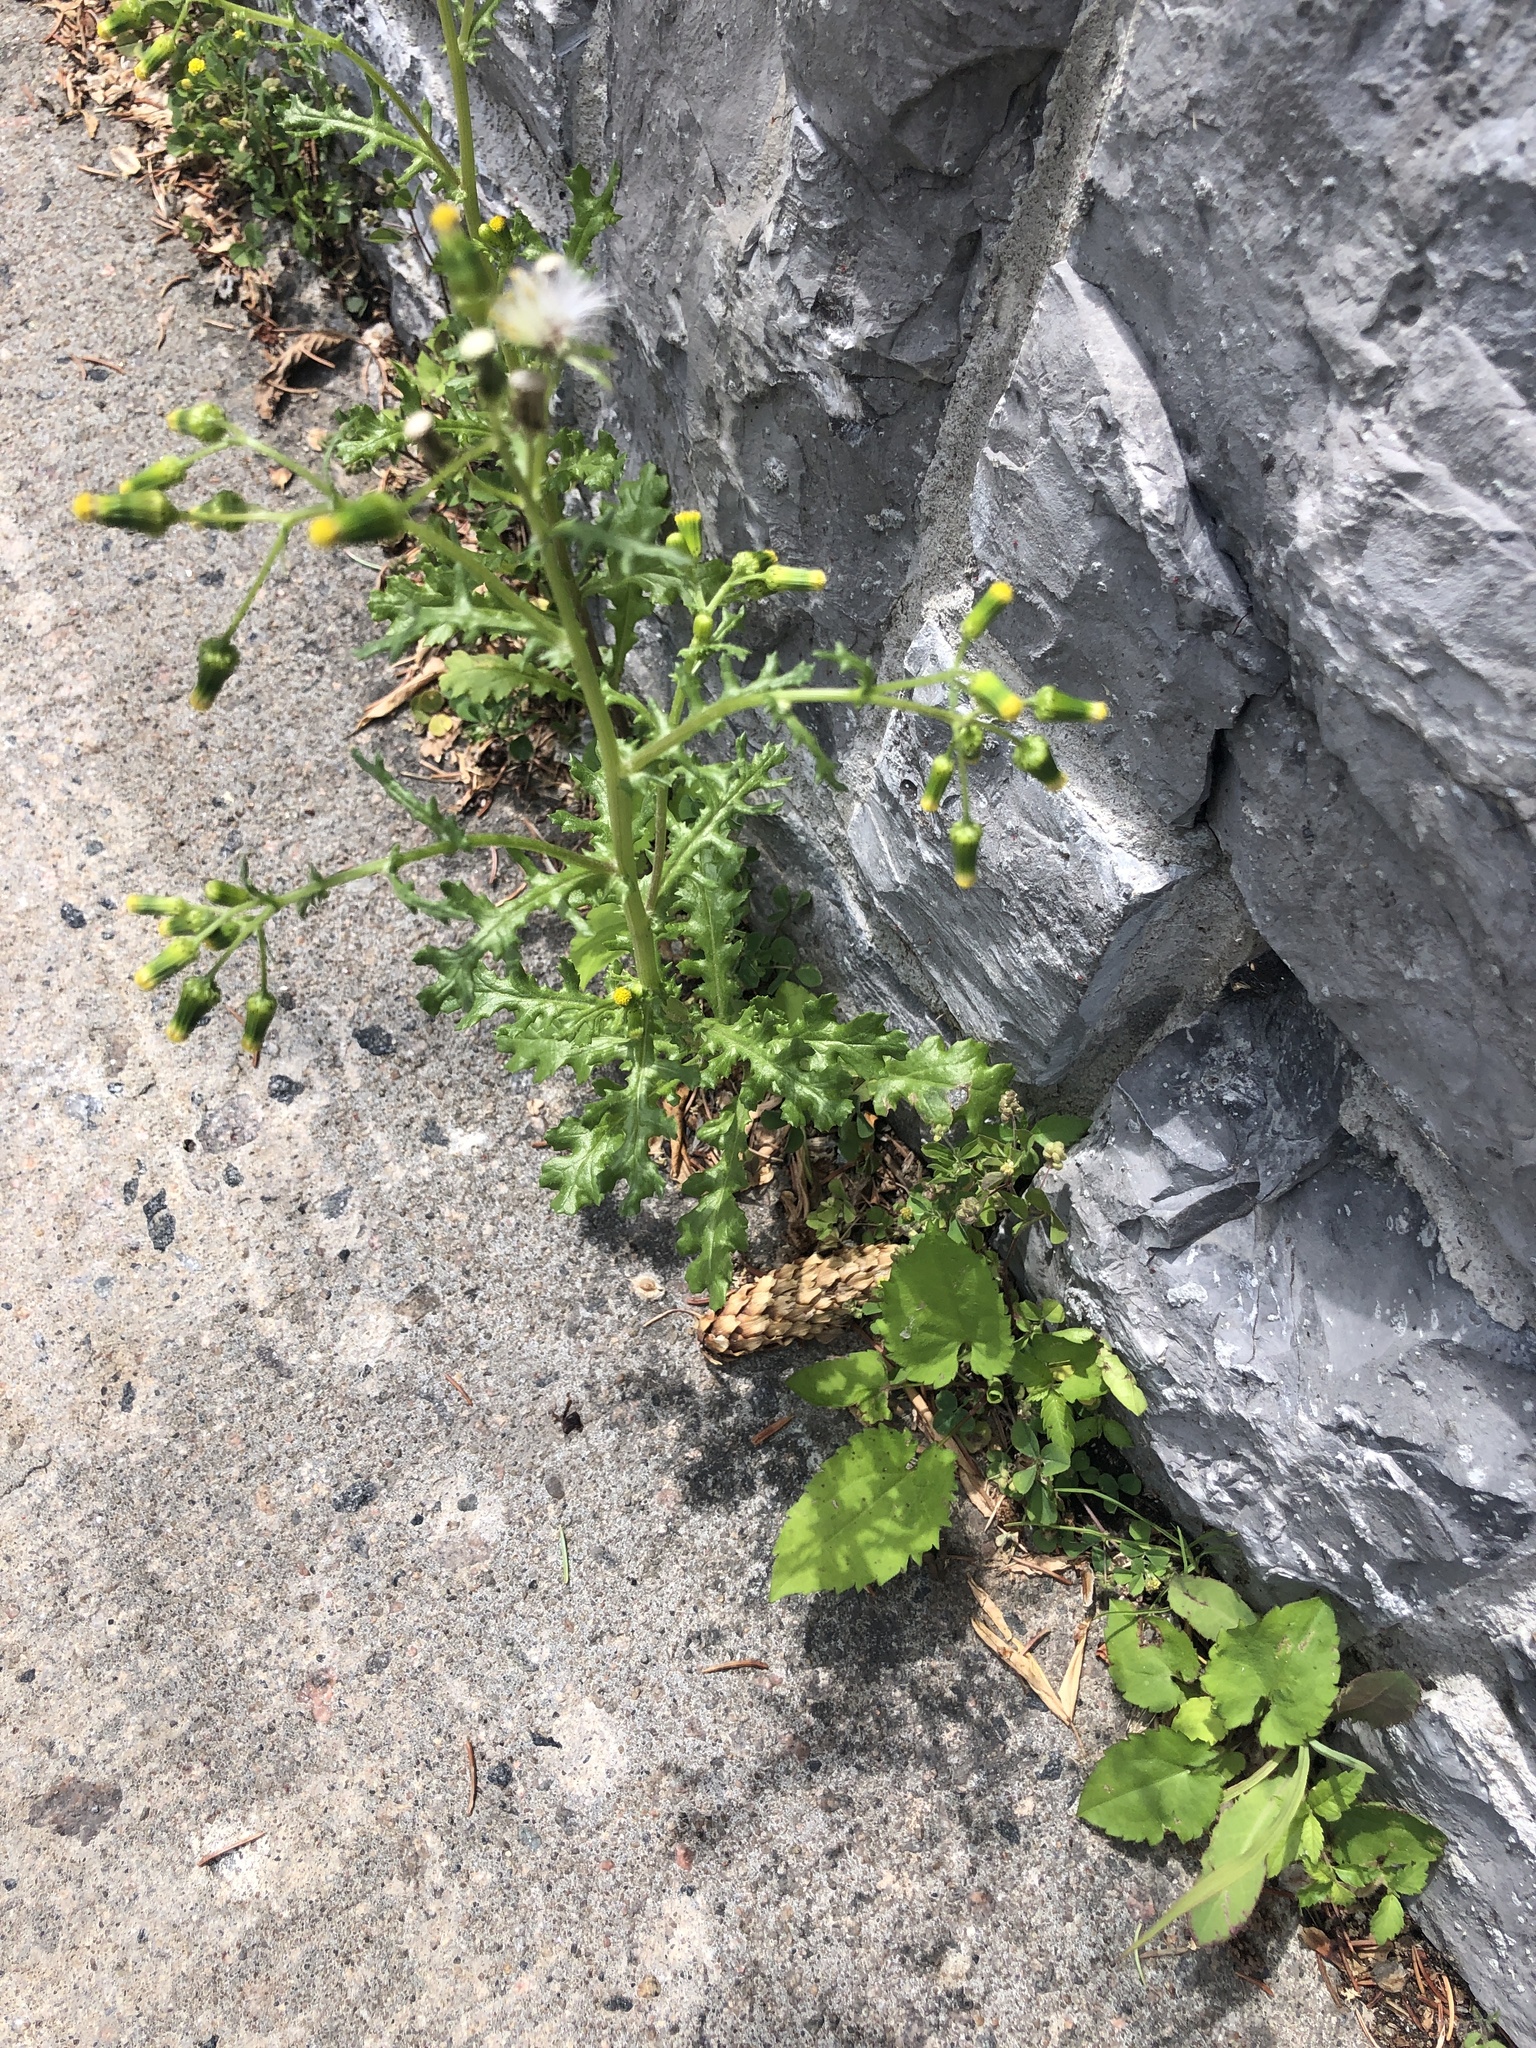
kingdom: Plantae
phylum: Tracheophyta
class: Magnoliopsida
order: Asterales
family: Asteraceae
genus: Senecio
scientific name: Senecio vulgaris
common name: Old-man-in-the-spring
